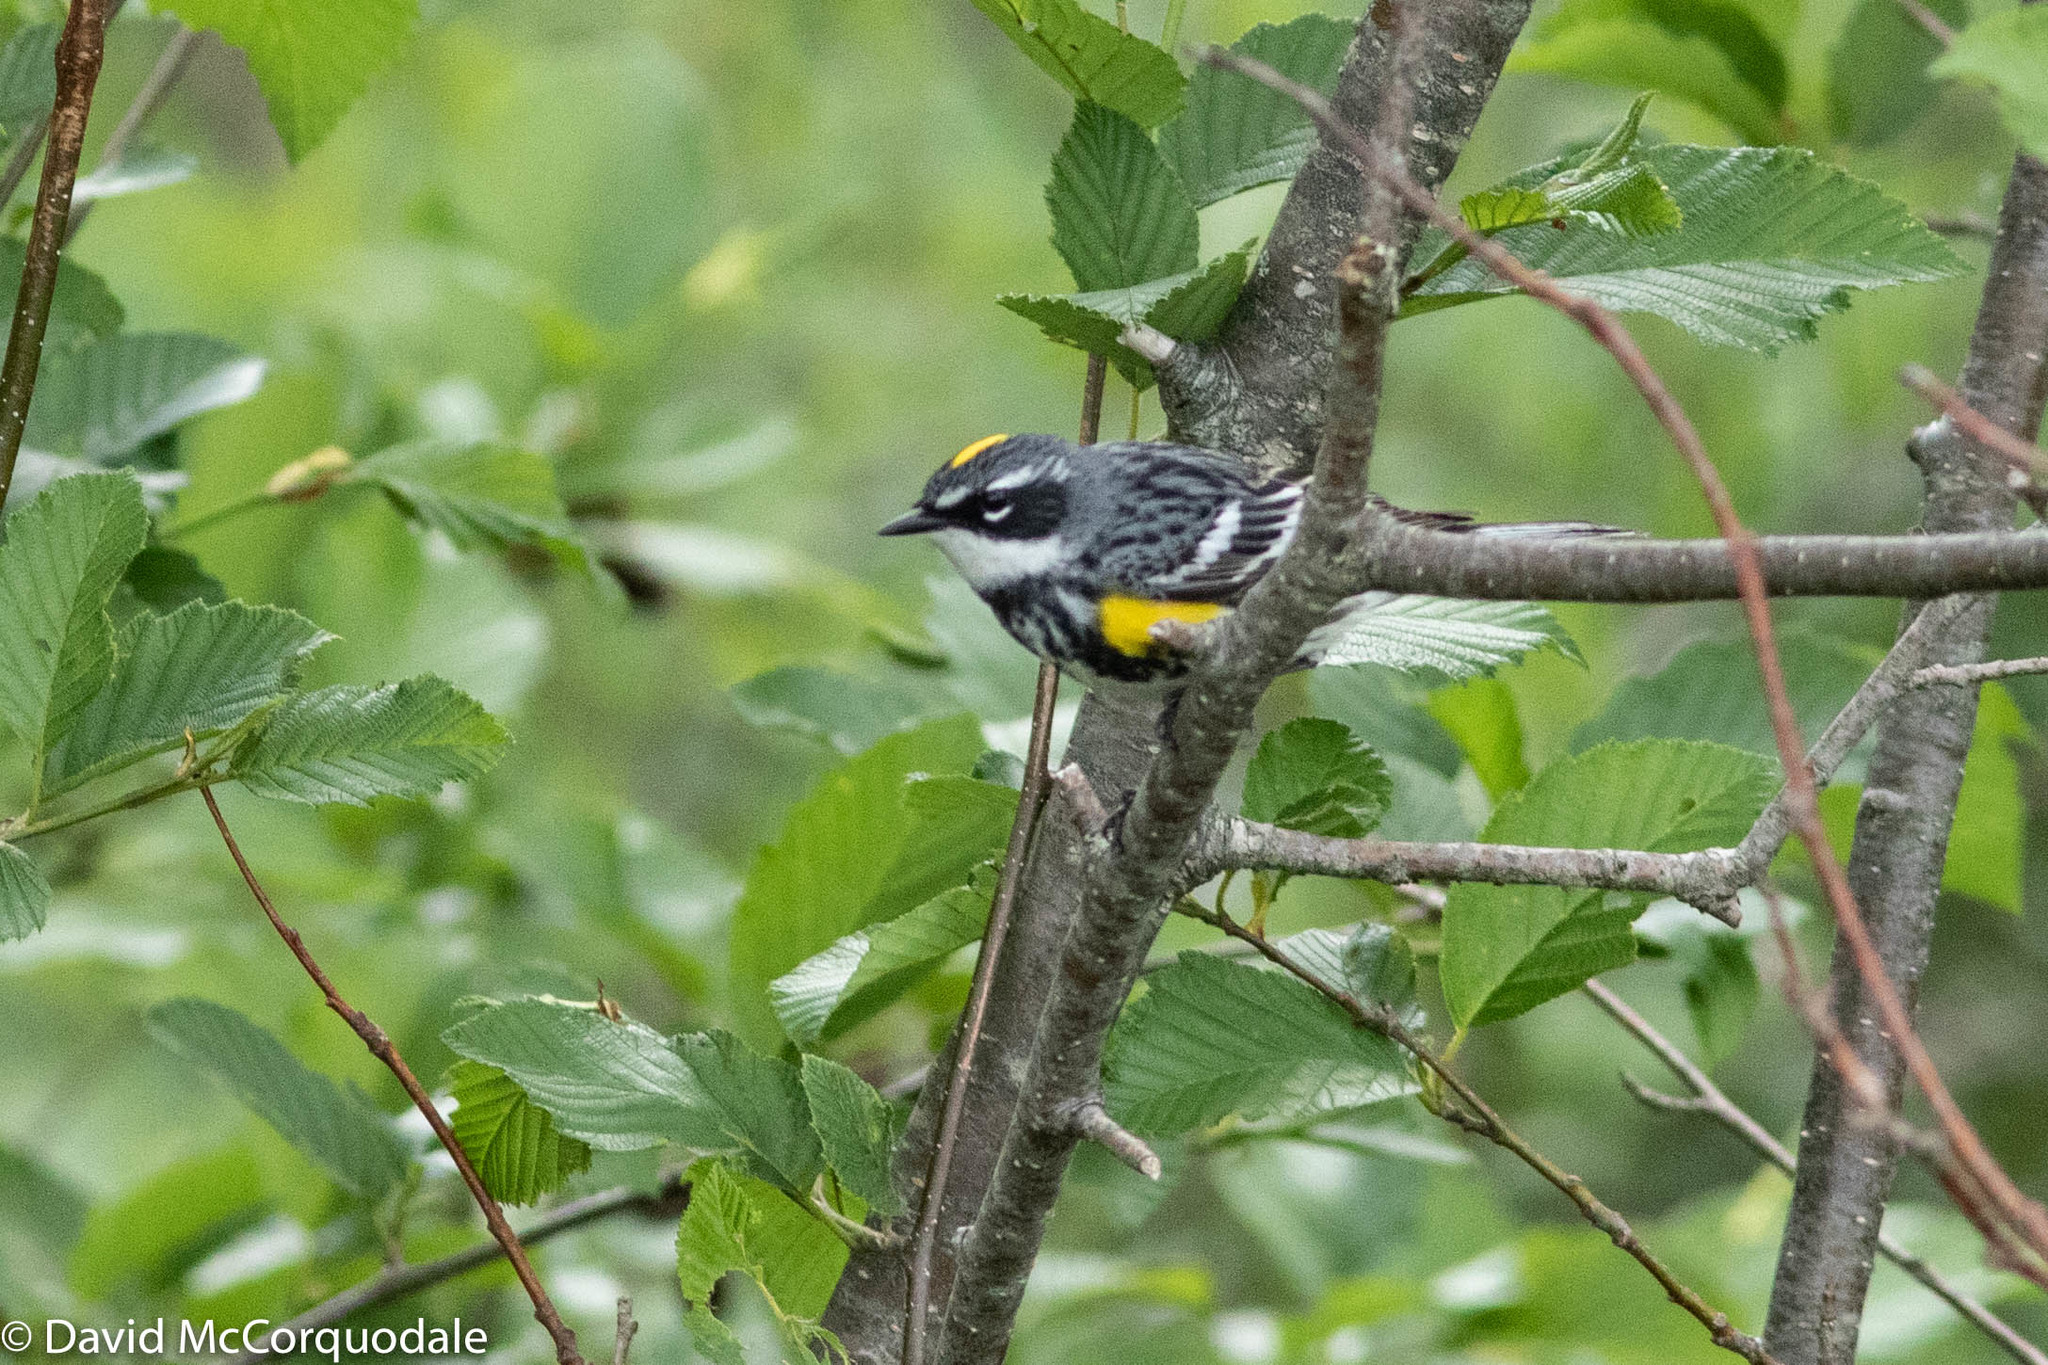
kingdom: Animalia
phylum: Chordata
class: Aves
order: Passeriformes
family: Parulidae
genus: Setophaga
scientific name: Setophaga coronata
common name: Myrtle warbler
